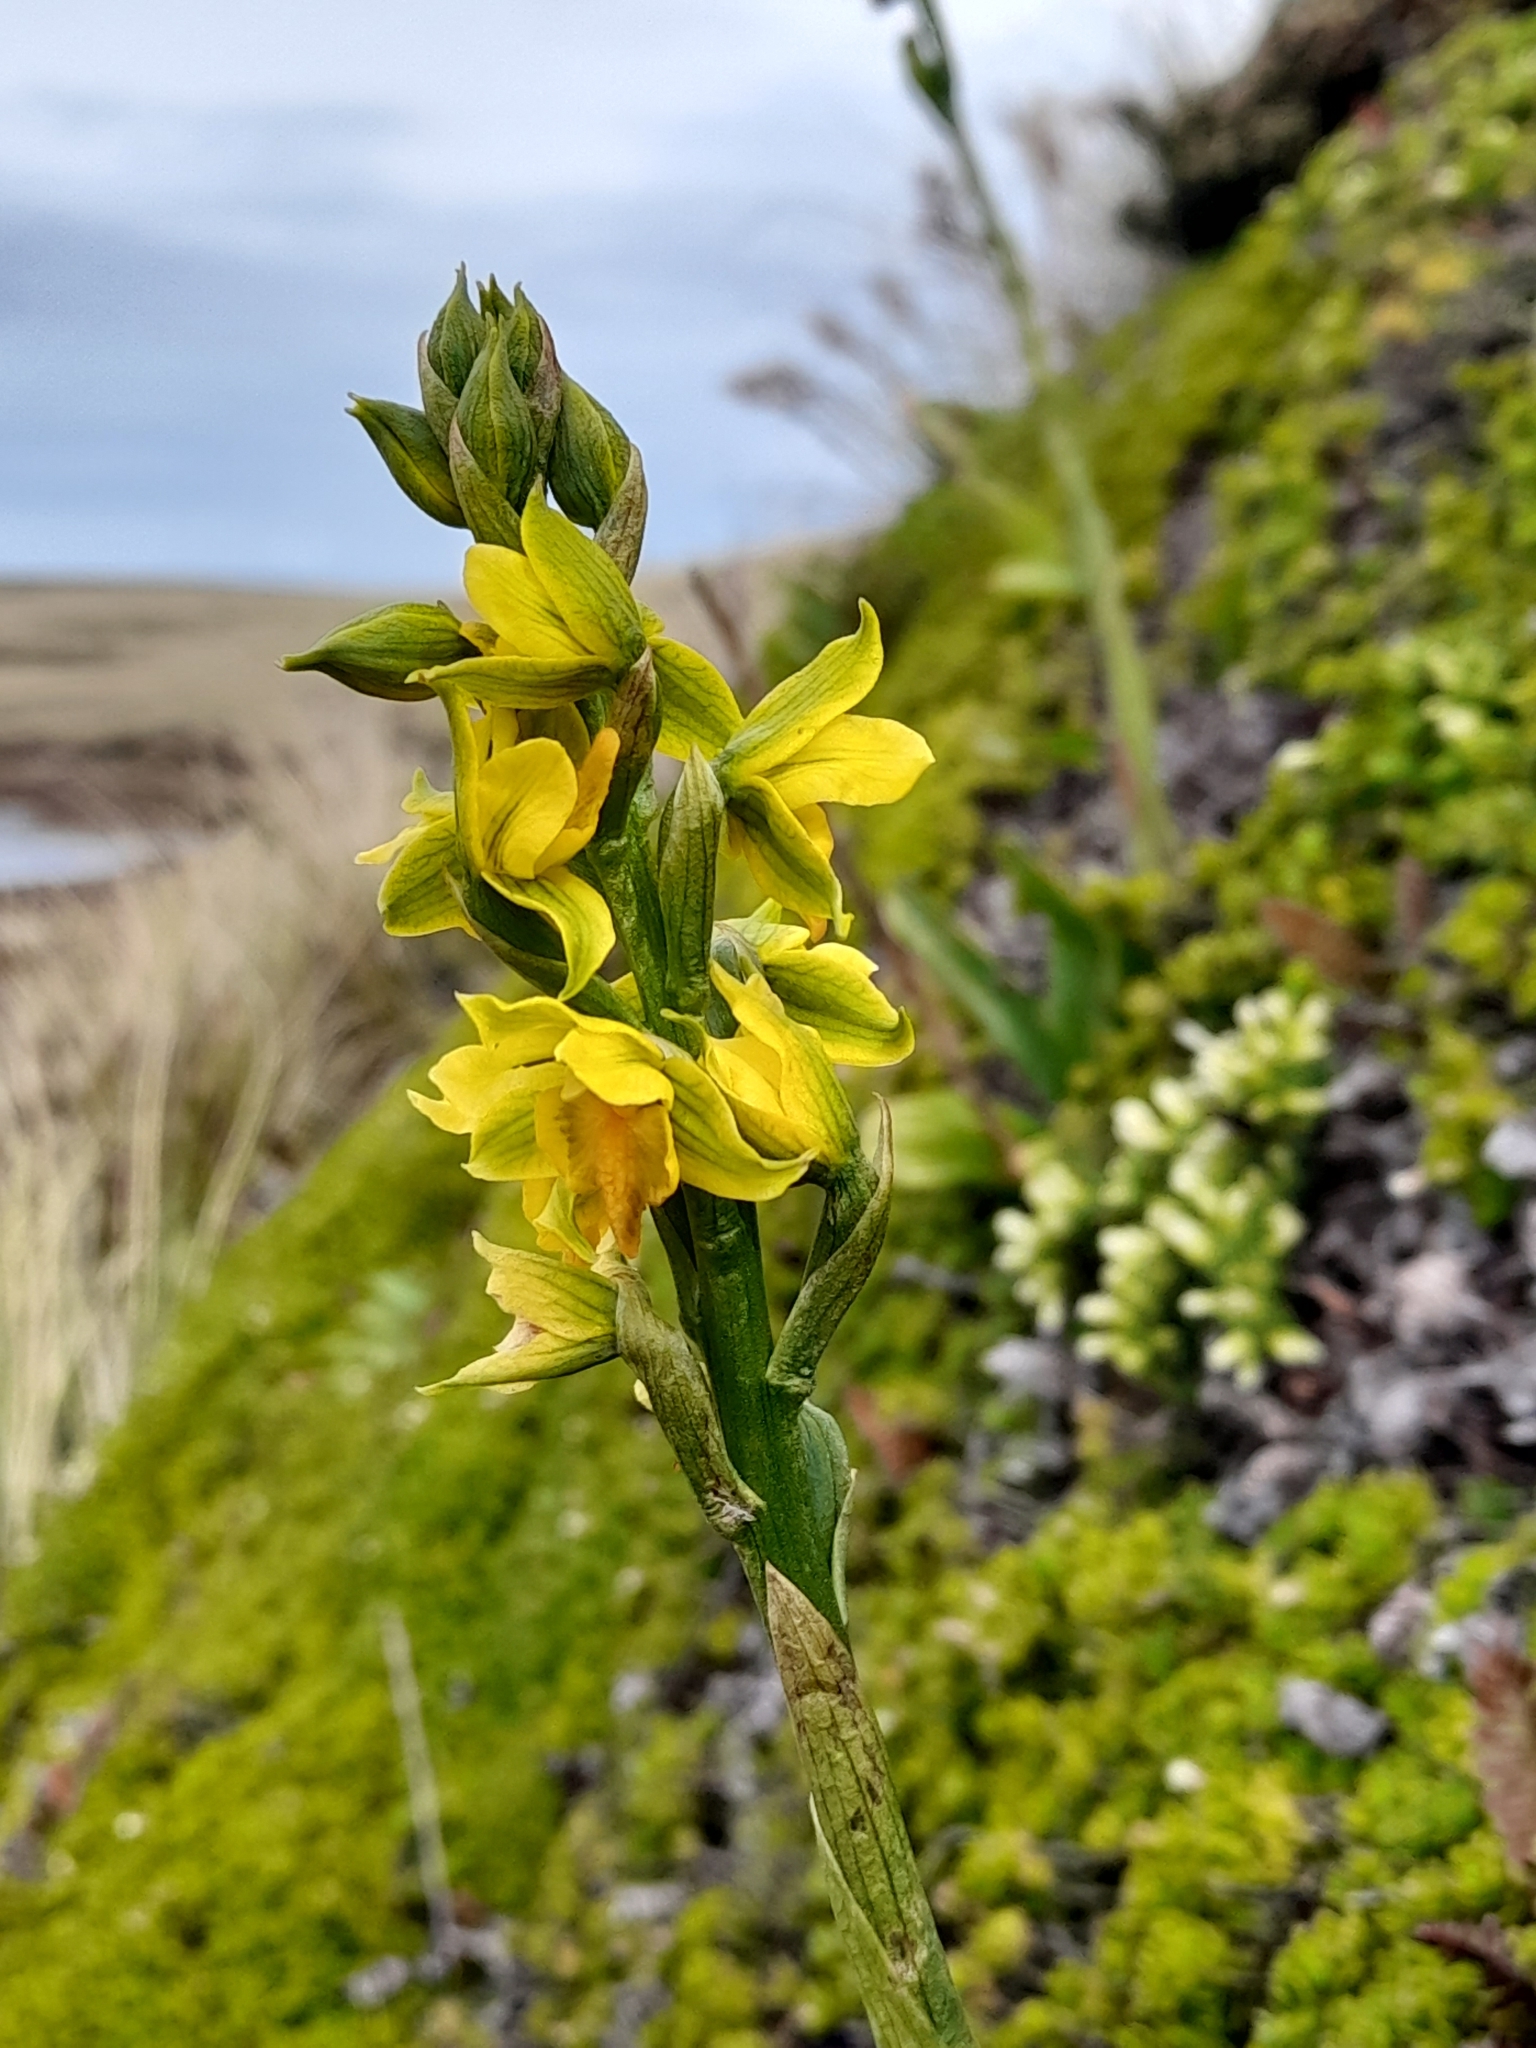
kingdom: Plantae
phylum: Tracheophyta
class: Liliopsida
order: Asparagales
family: Orchidaceae
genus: Gavilea
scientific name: Gavilea litoralis
